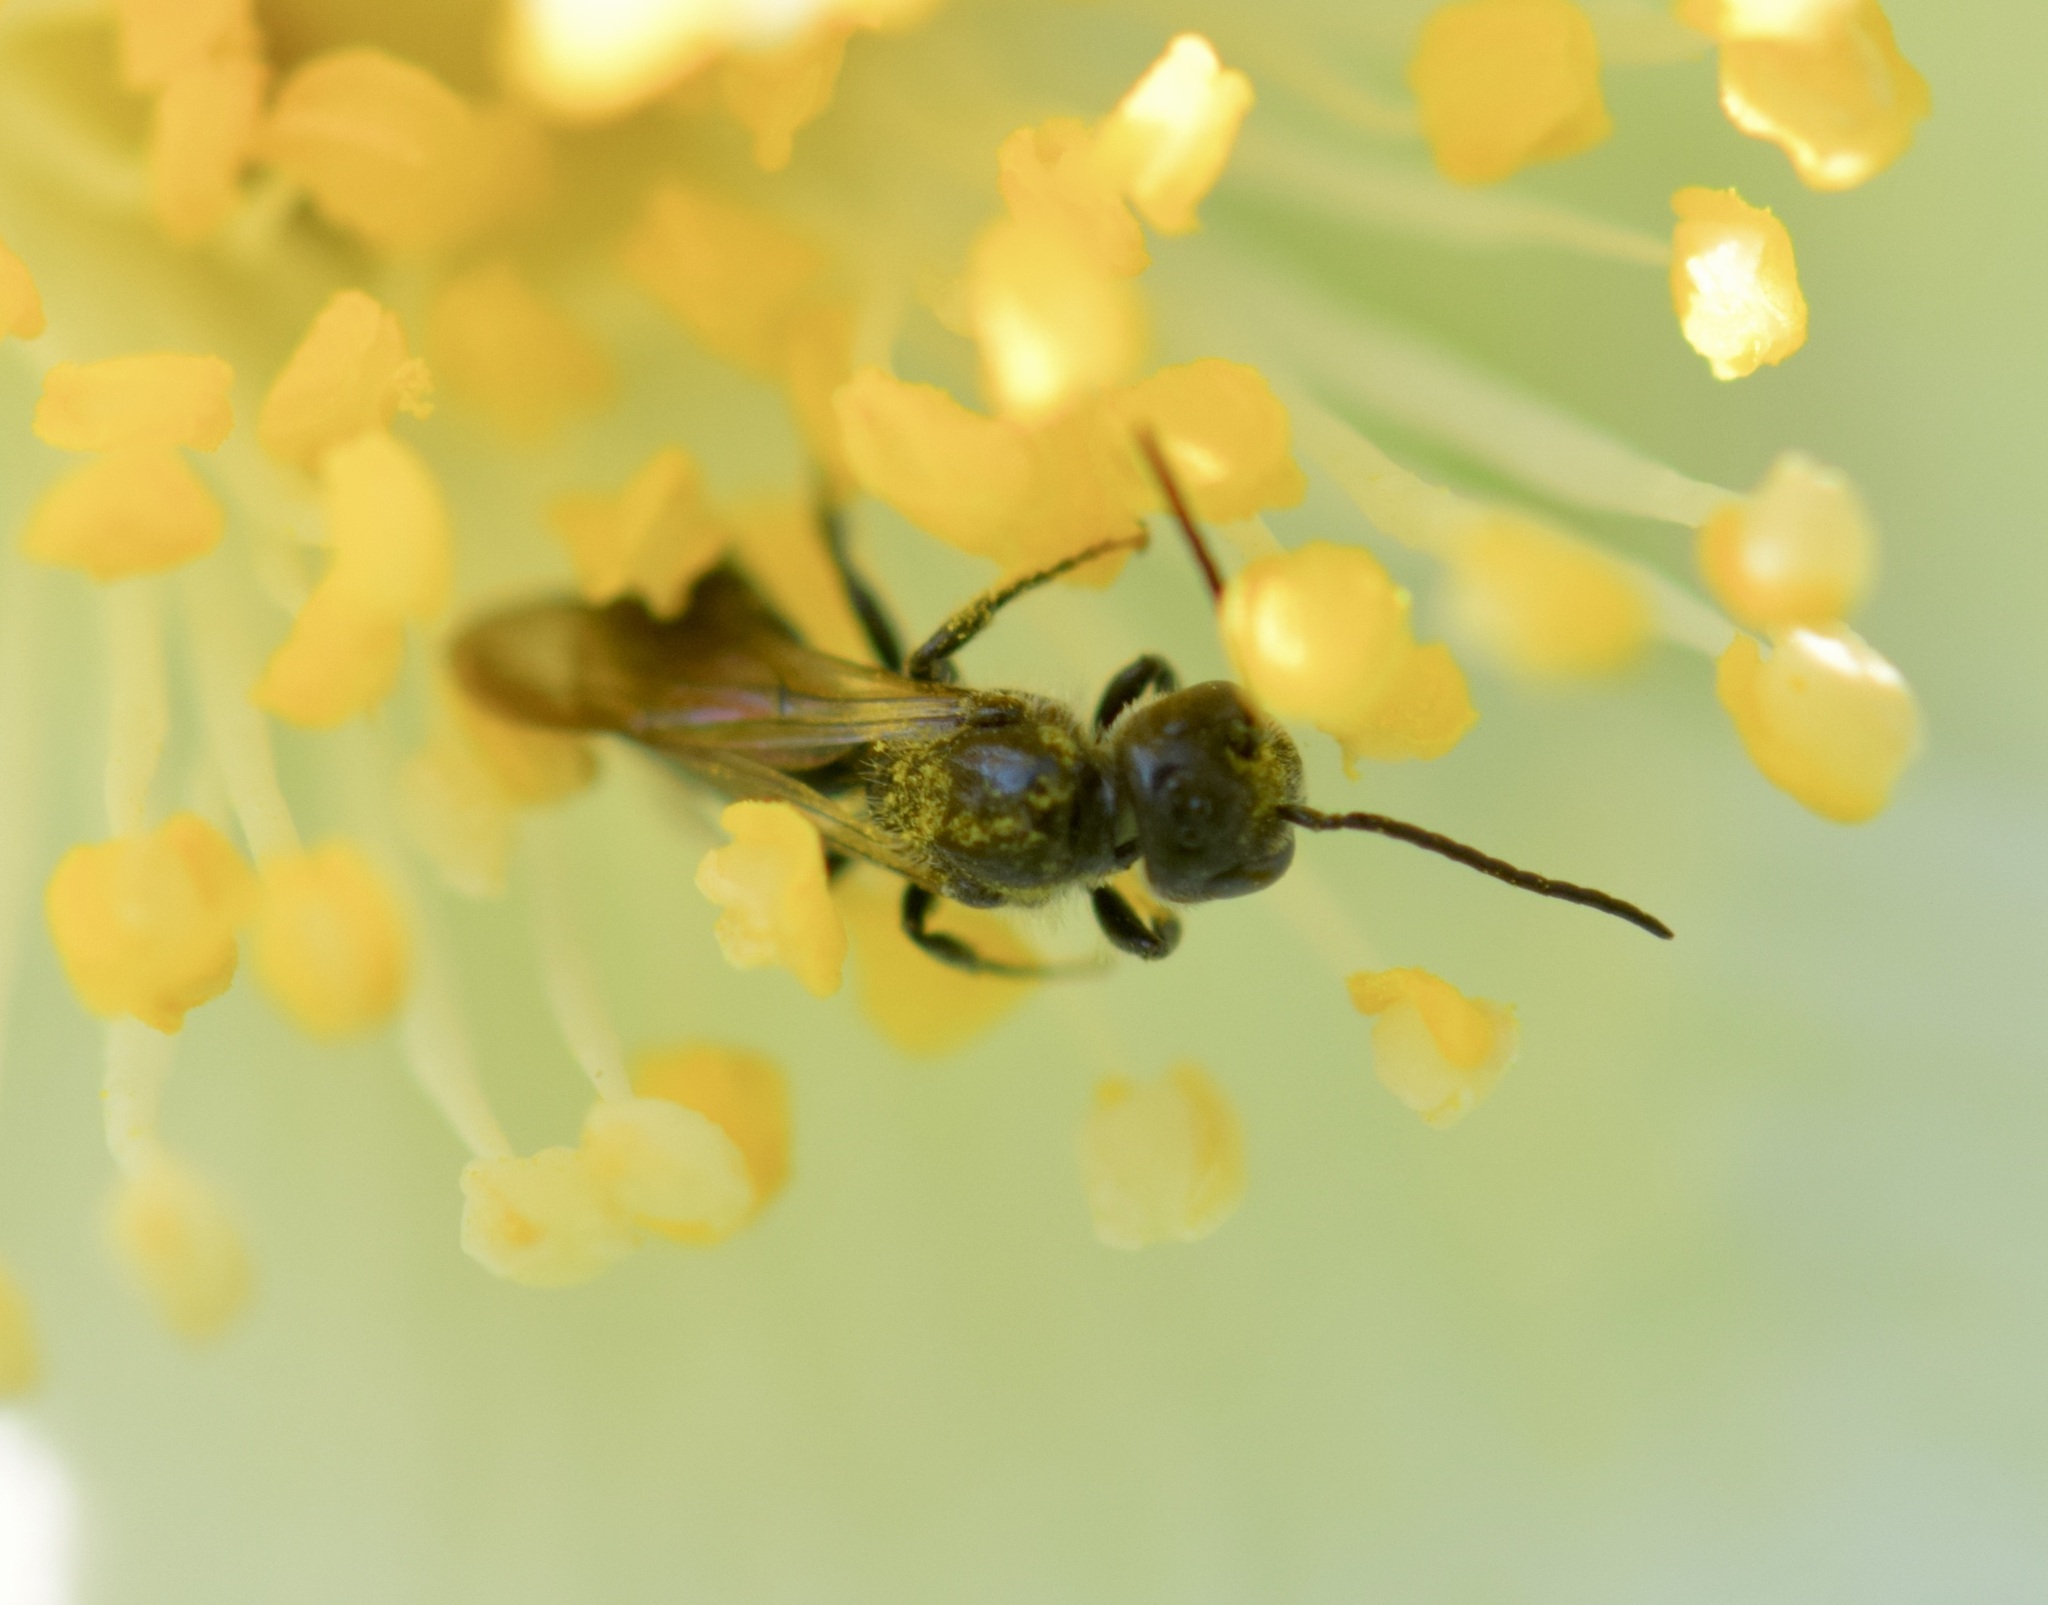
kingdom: Animalia
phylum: Arthropoda
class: Insecta
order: Hymenoptera
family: Megachilidae
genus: Chelostoma
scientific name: Chelostoma philadelphi
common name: Mock-orange scissor bee
